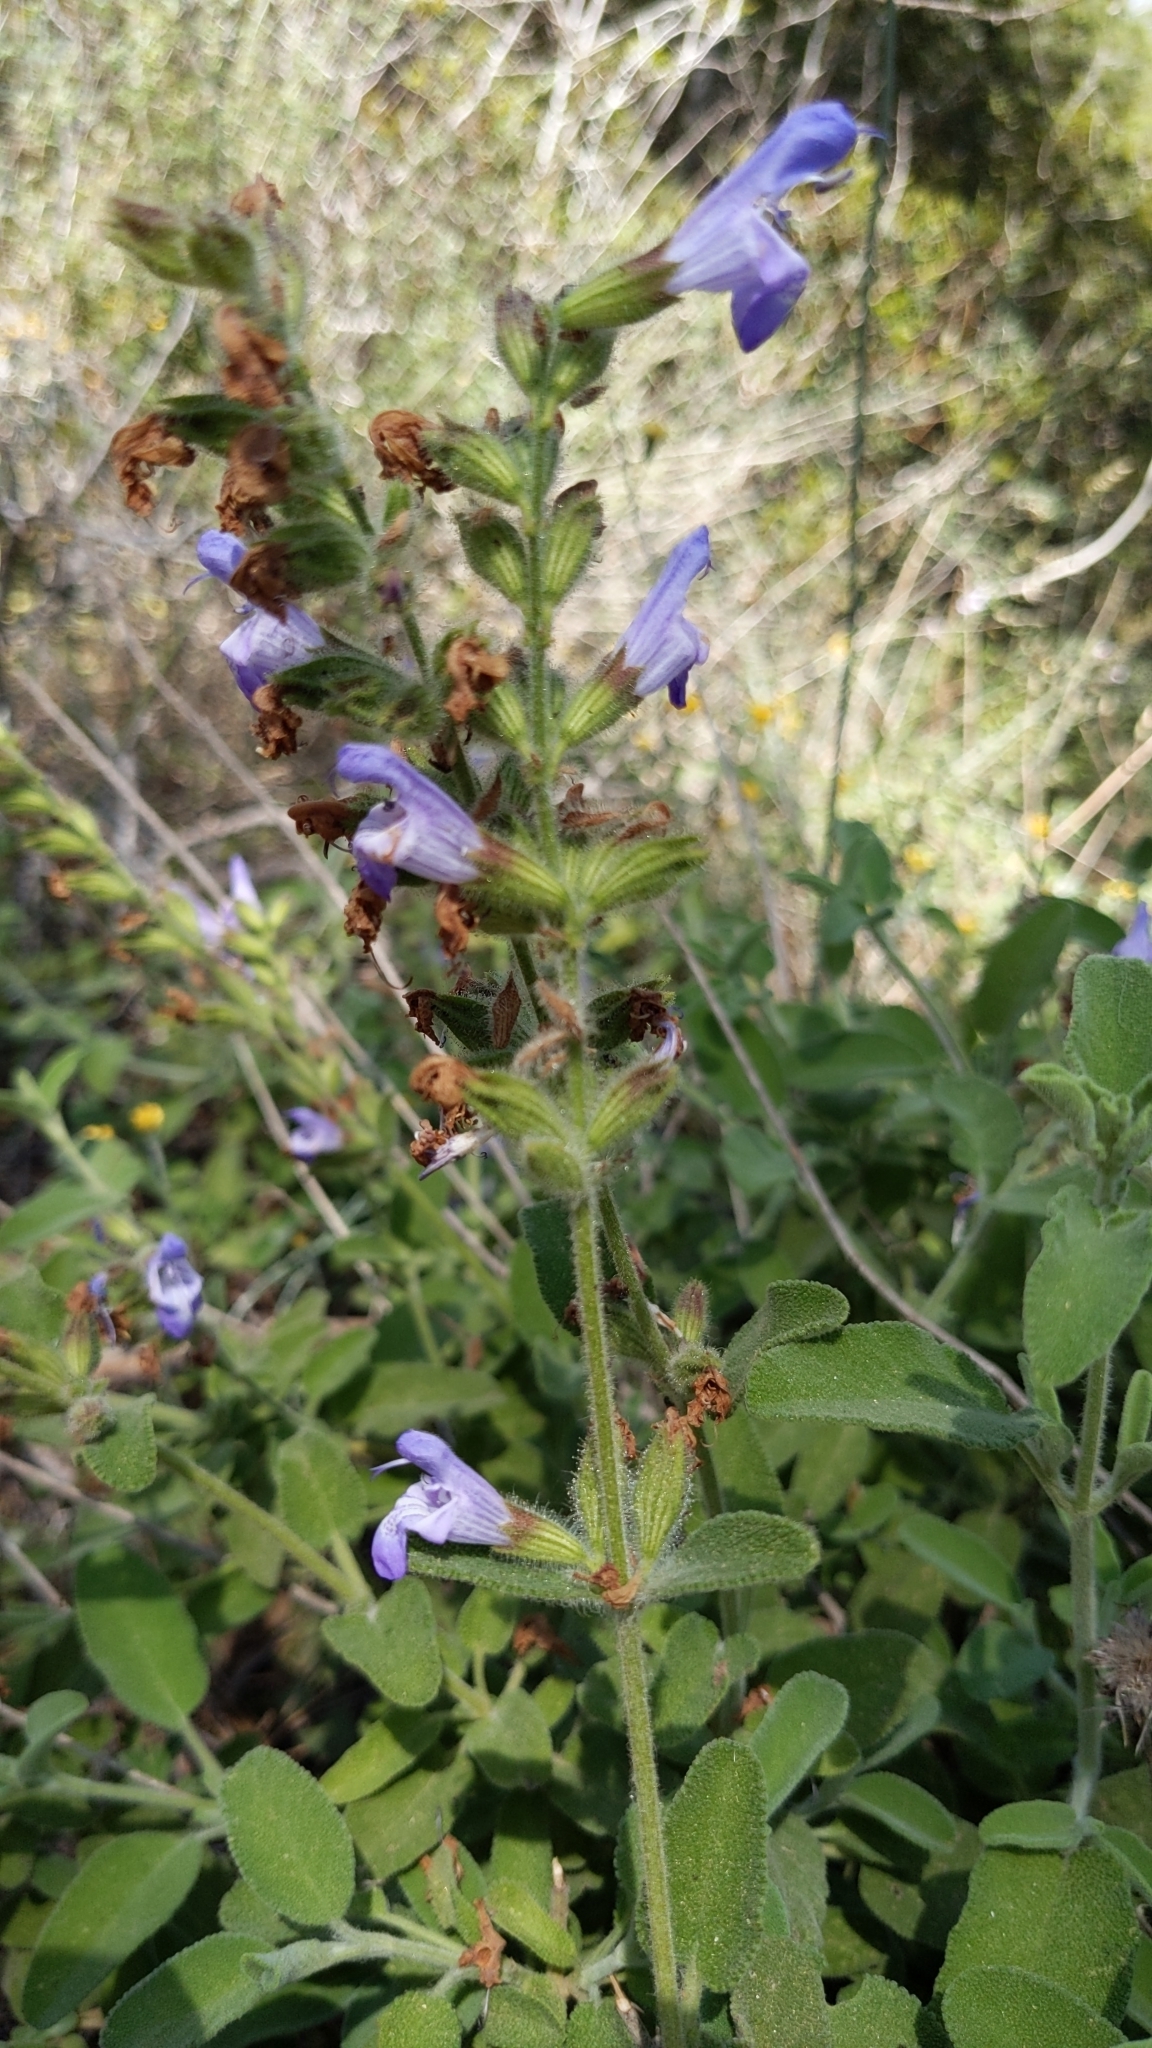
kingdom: Plantae
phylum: Tracheophyta
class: Magnoliopsida
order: Lamiales
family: Lamiaceae
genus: Salvia
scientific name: Salvia fruticosa
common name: Greek sage
